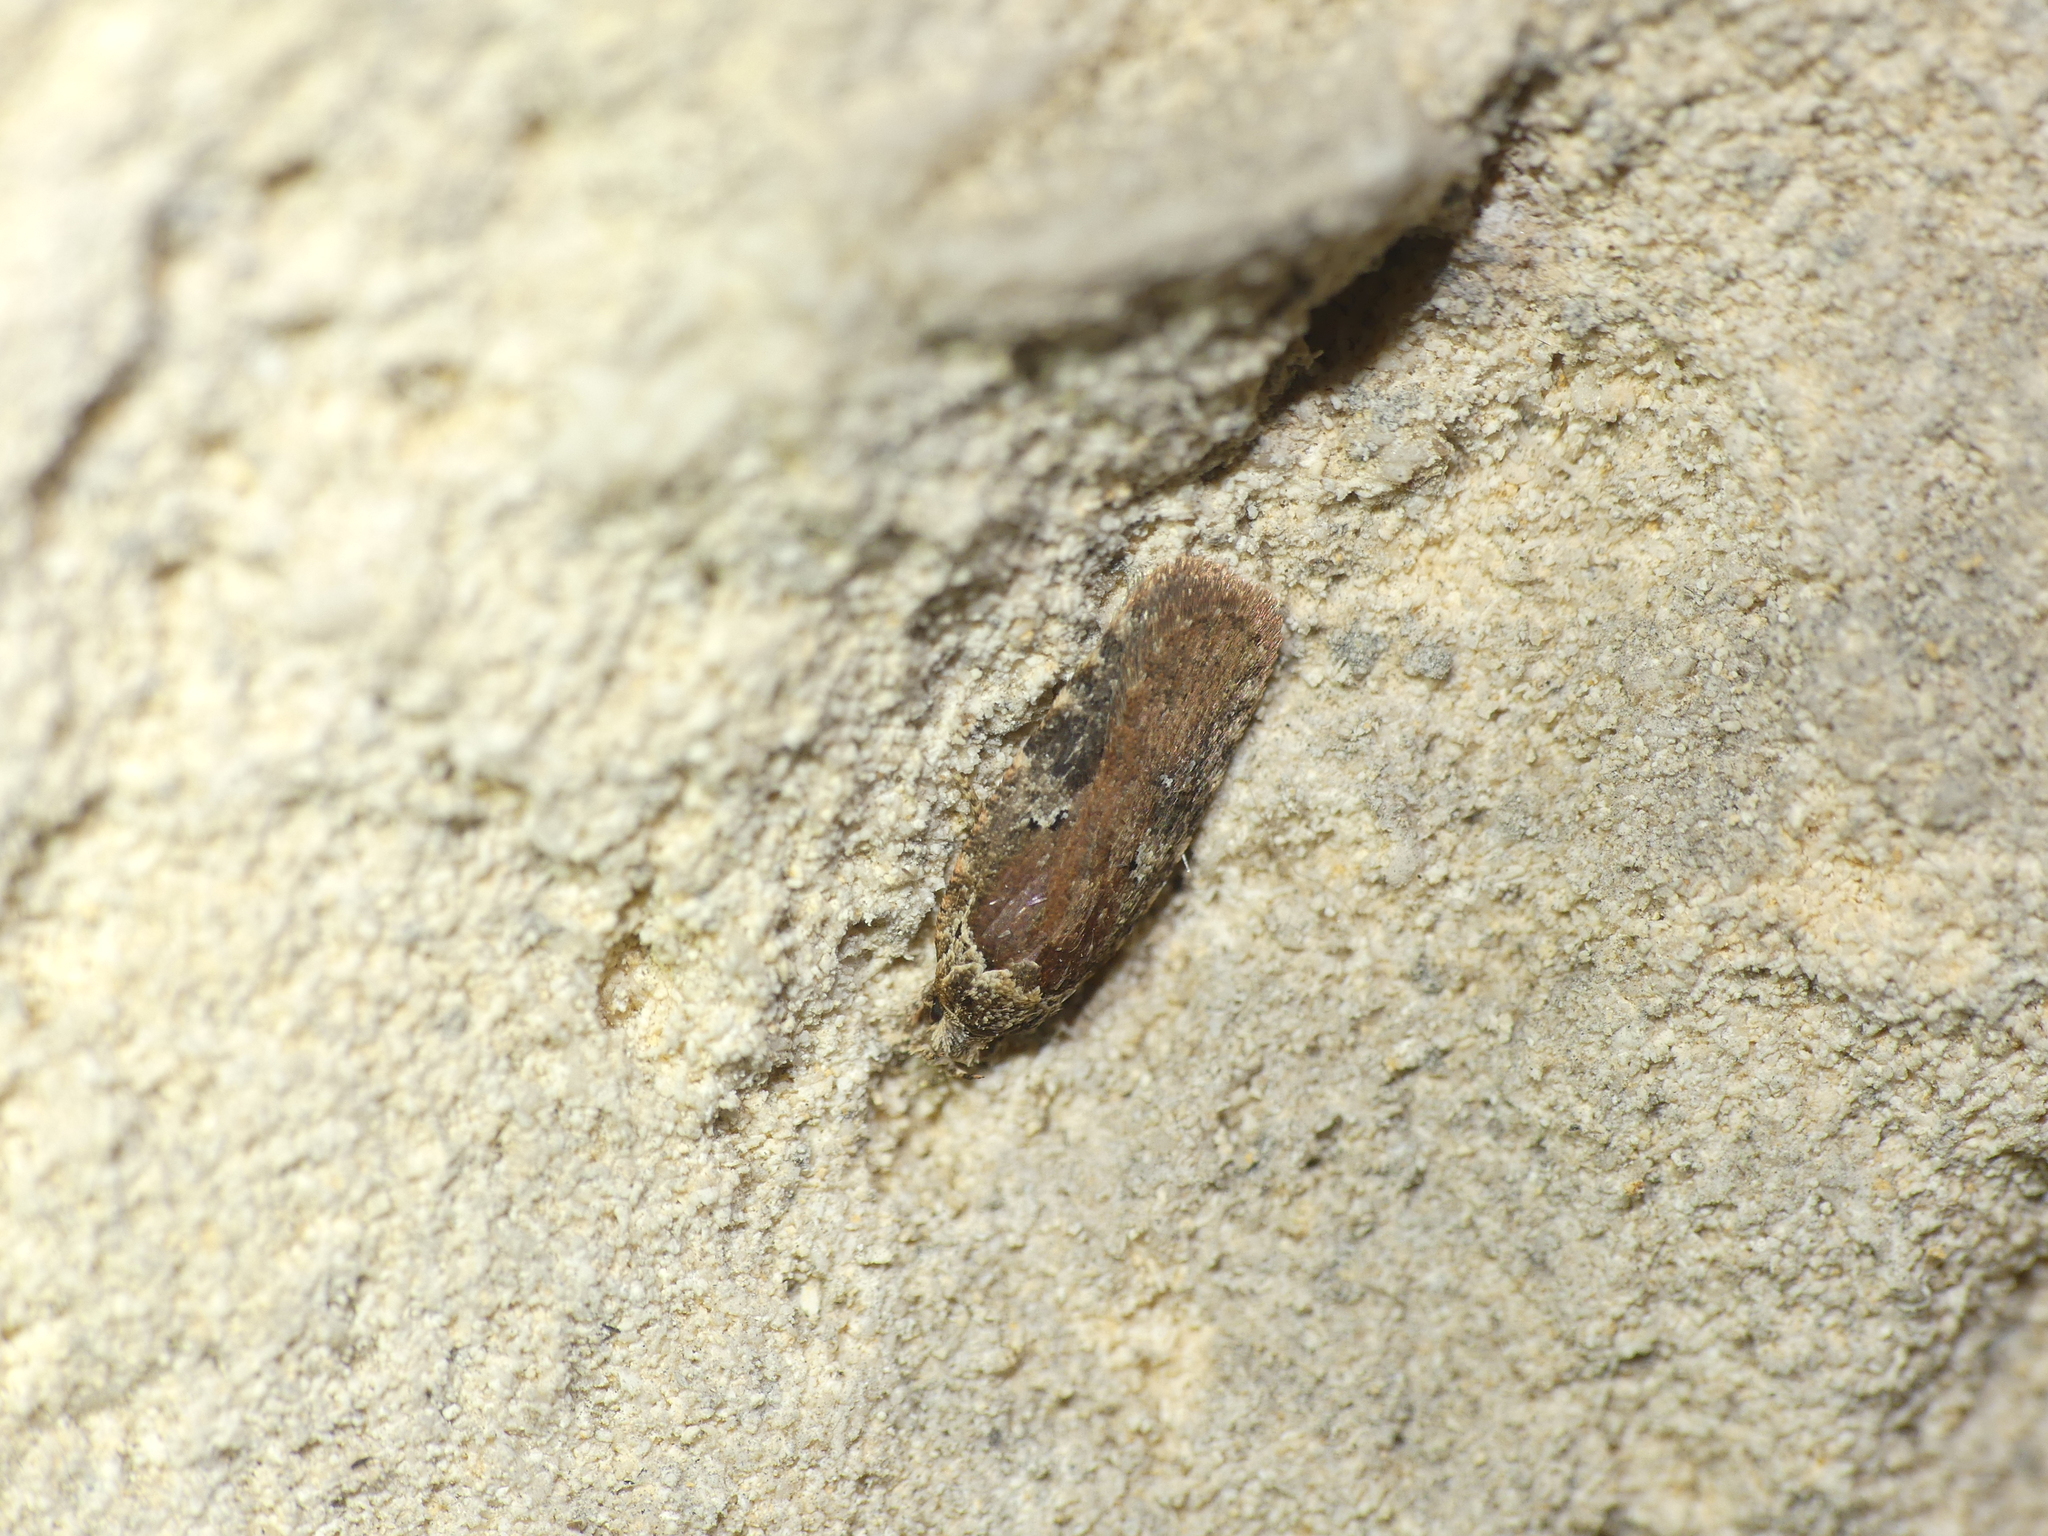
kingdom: Animalia
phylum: Arthropoda
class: Insecta
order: Lepidoptera
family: Depressariidae
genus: Agonopterix
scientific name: Agonopterix purpurea
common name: Small purple flat-body
